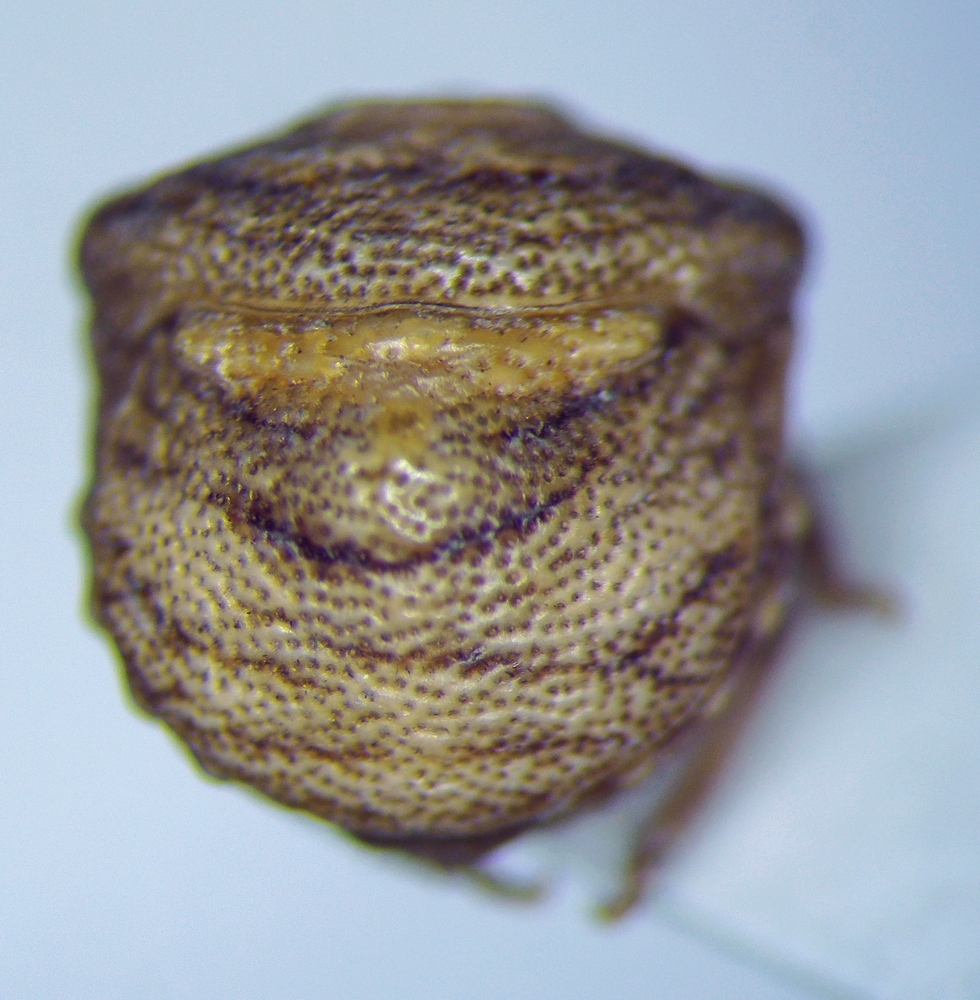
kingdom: Animalia
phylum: Arthropoda
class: Insecta
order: Hemiptera
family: Pentatomidae
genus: Vilpianus
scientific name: Vilpianus galii
